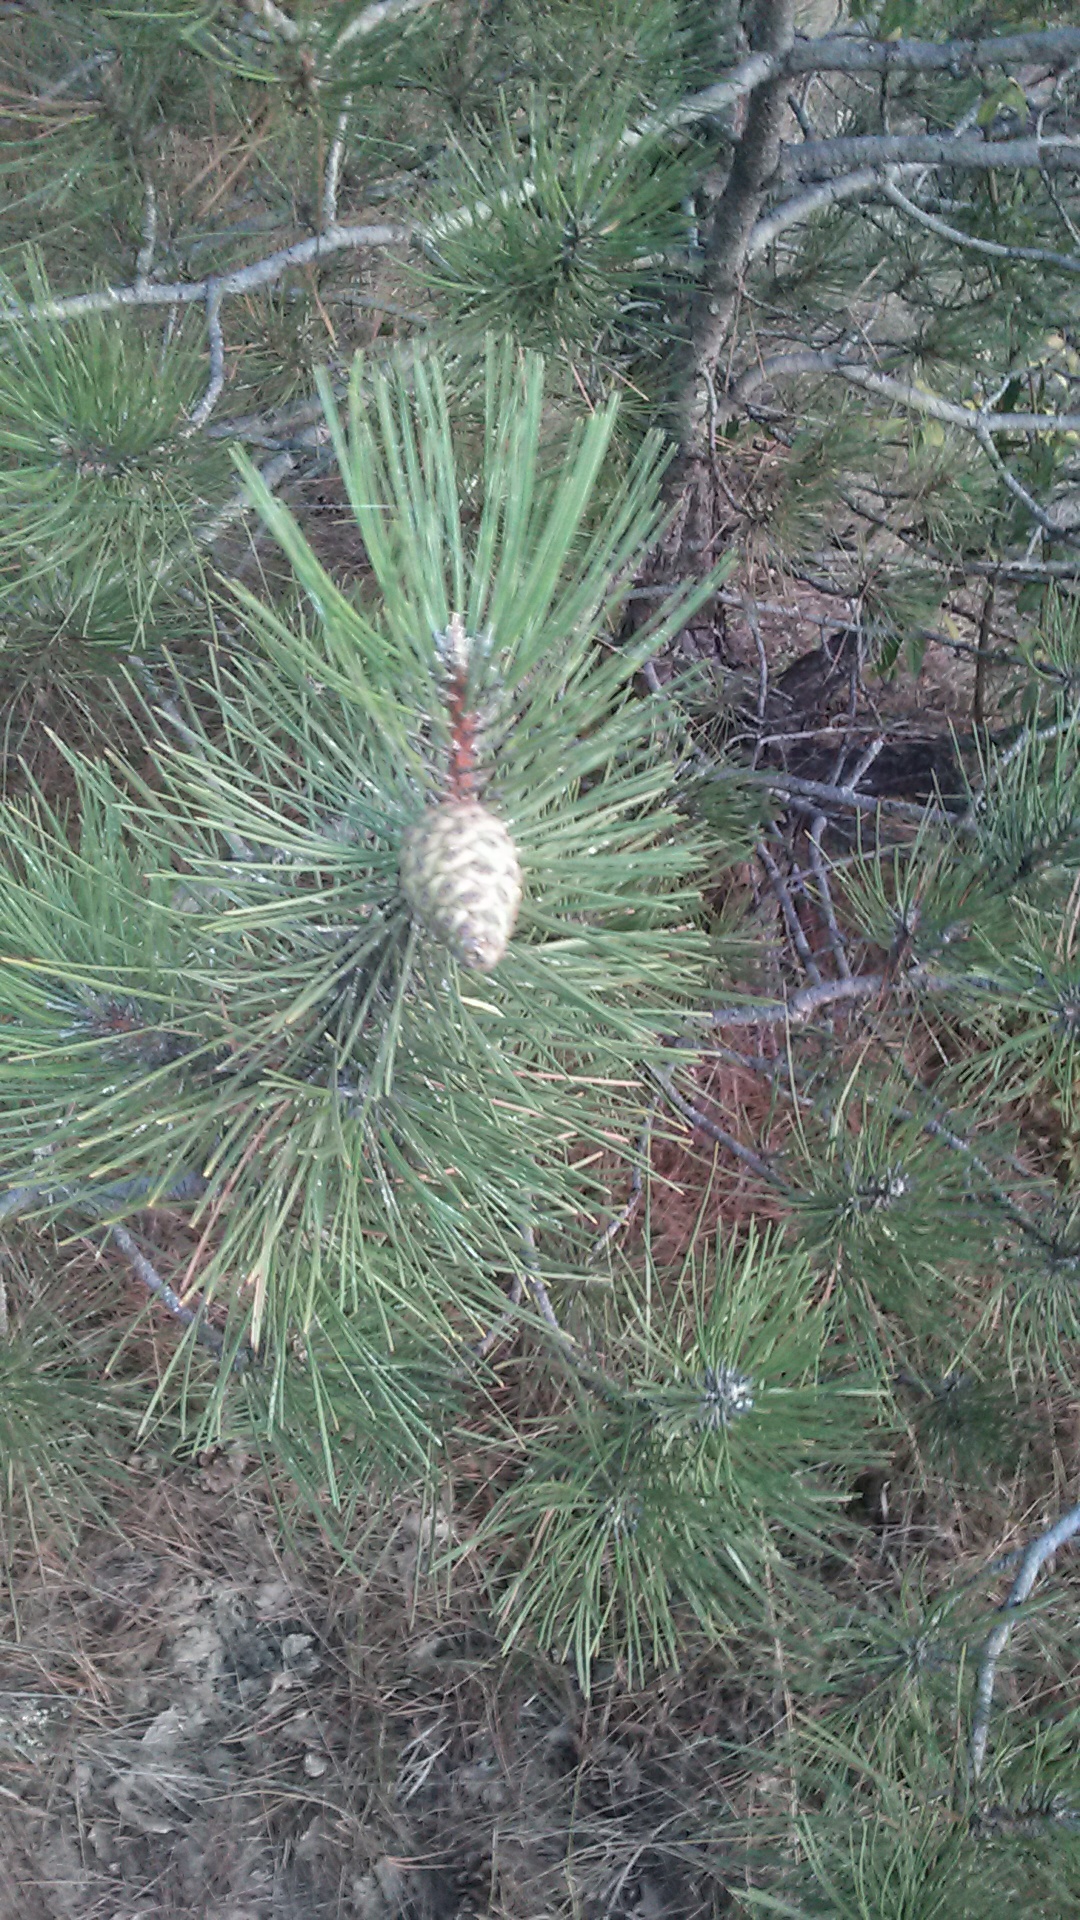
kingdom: Plantae
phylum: Tracheophyta
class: Pinopsida
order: Pinales
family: Pinaceae
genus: Pinus
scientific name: Pinus nigra
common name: Austrian pine
